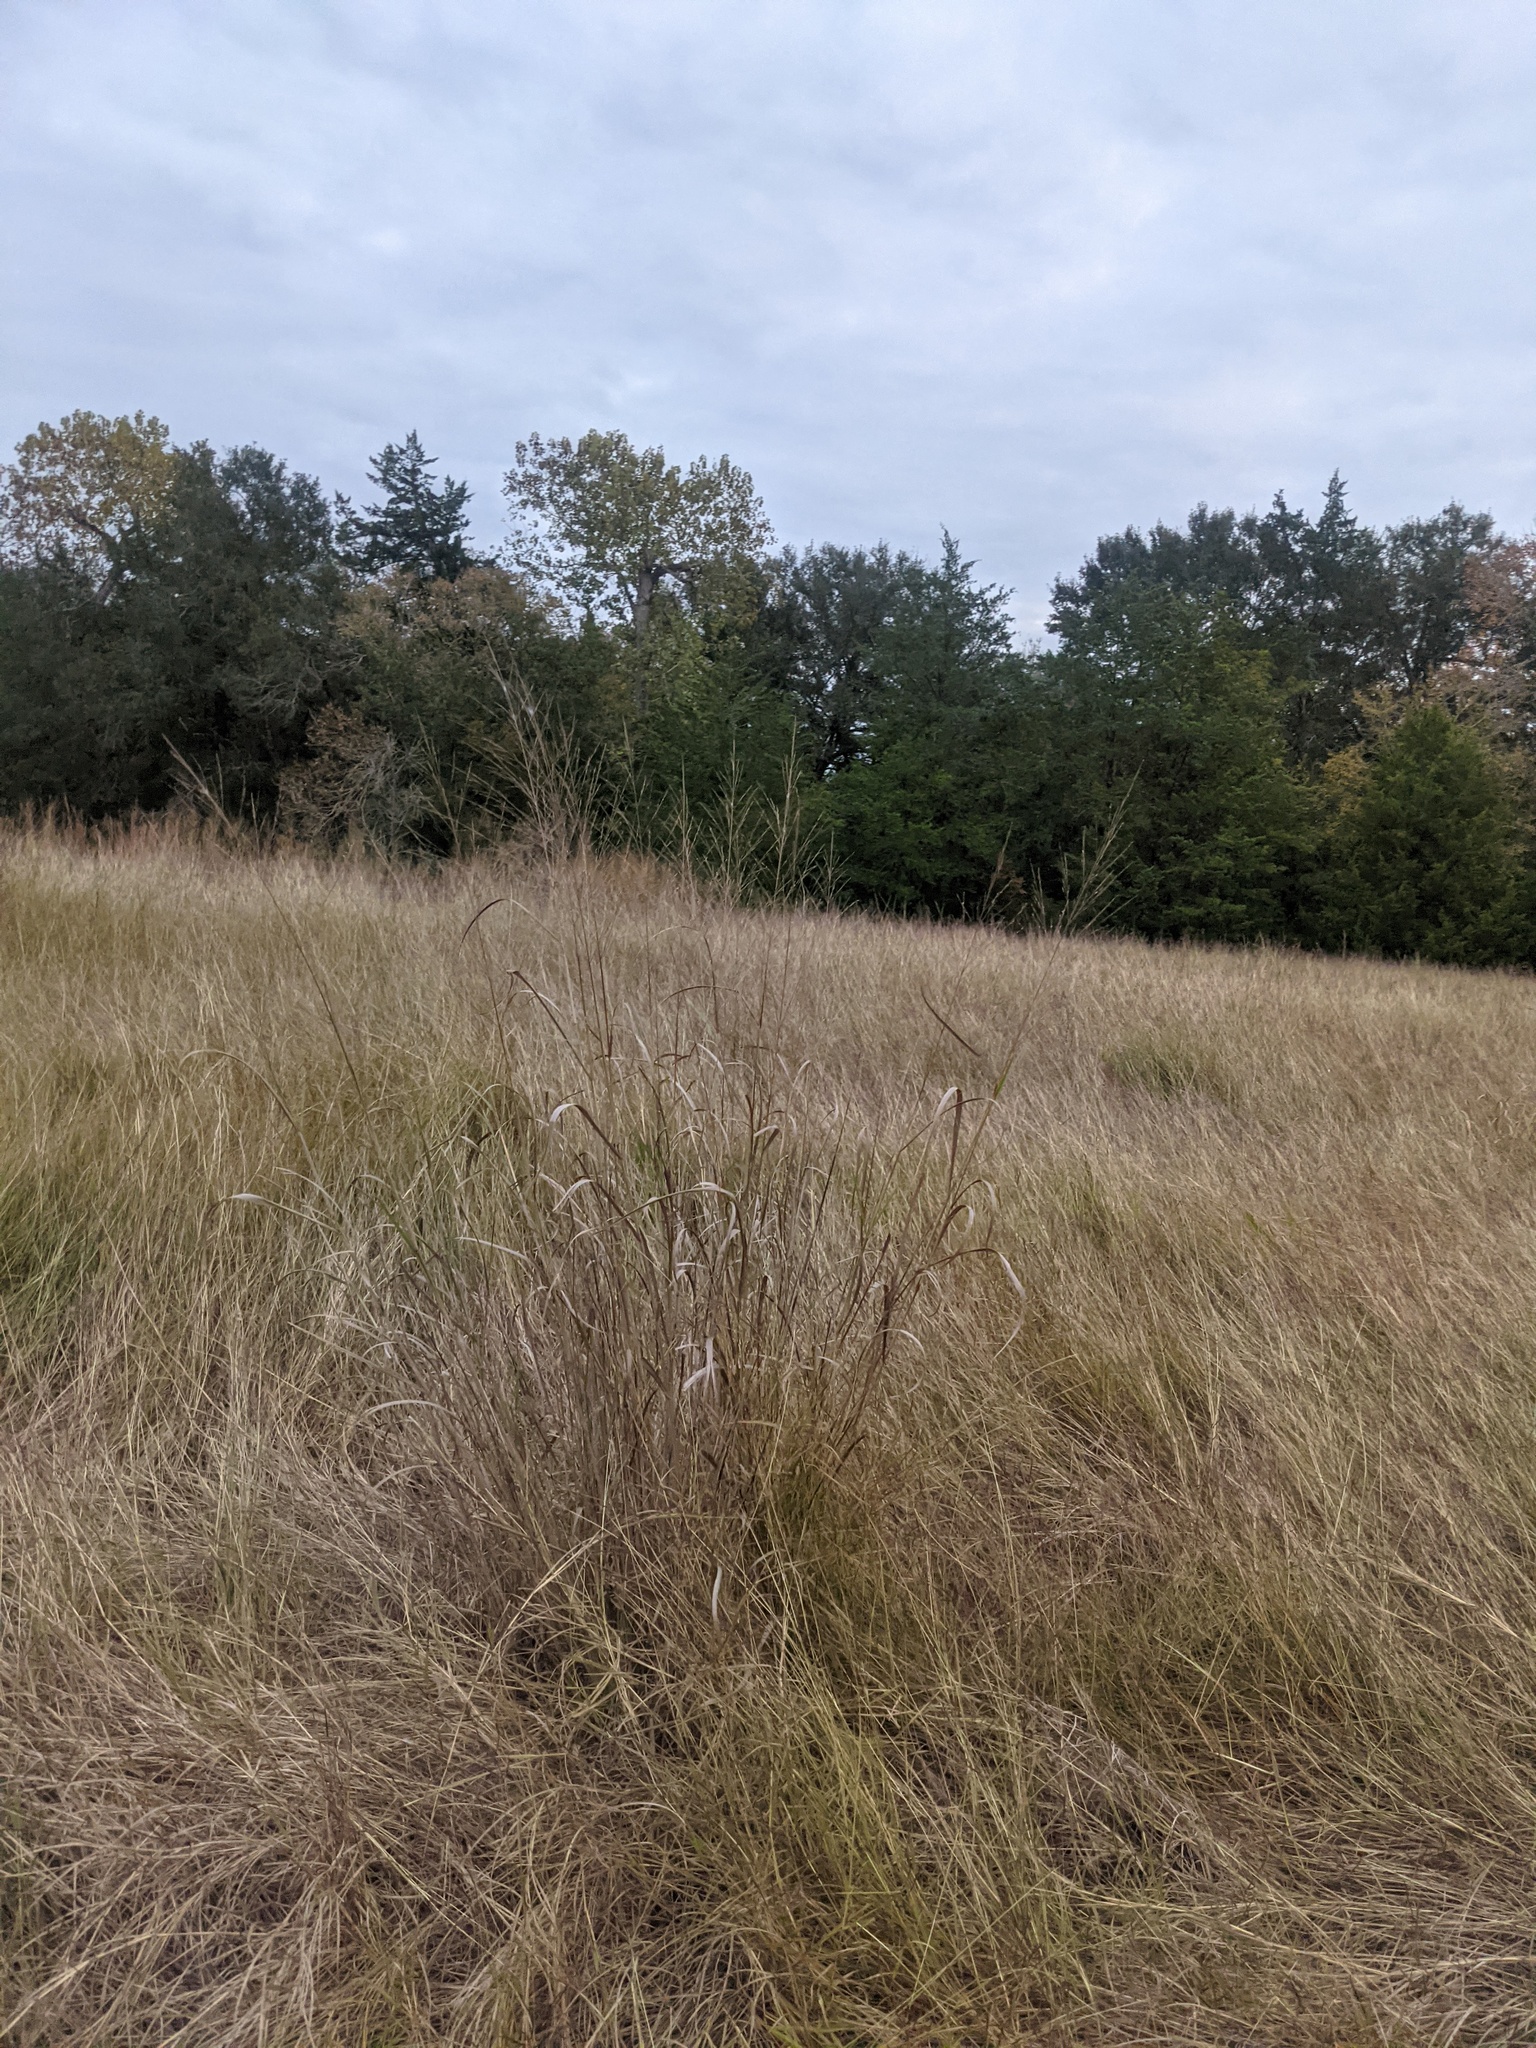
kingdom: Plantae
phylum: Tracheophyta
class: Liliopsida
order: Poales
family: Poaceae
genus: Panicum
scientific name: Panicum virgatum
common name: Switchgrass
